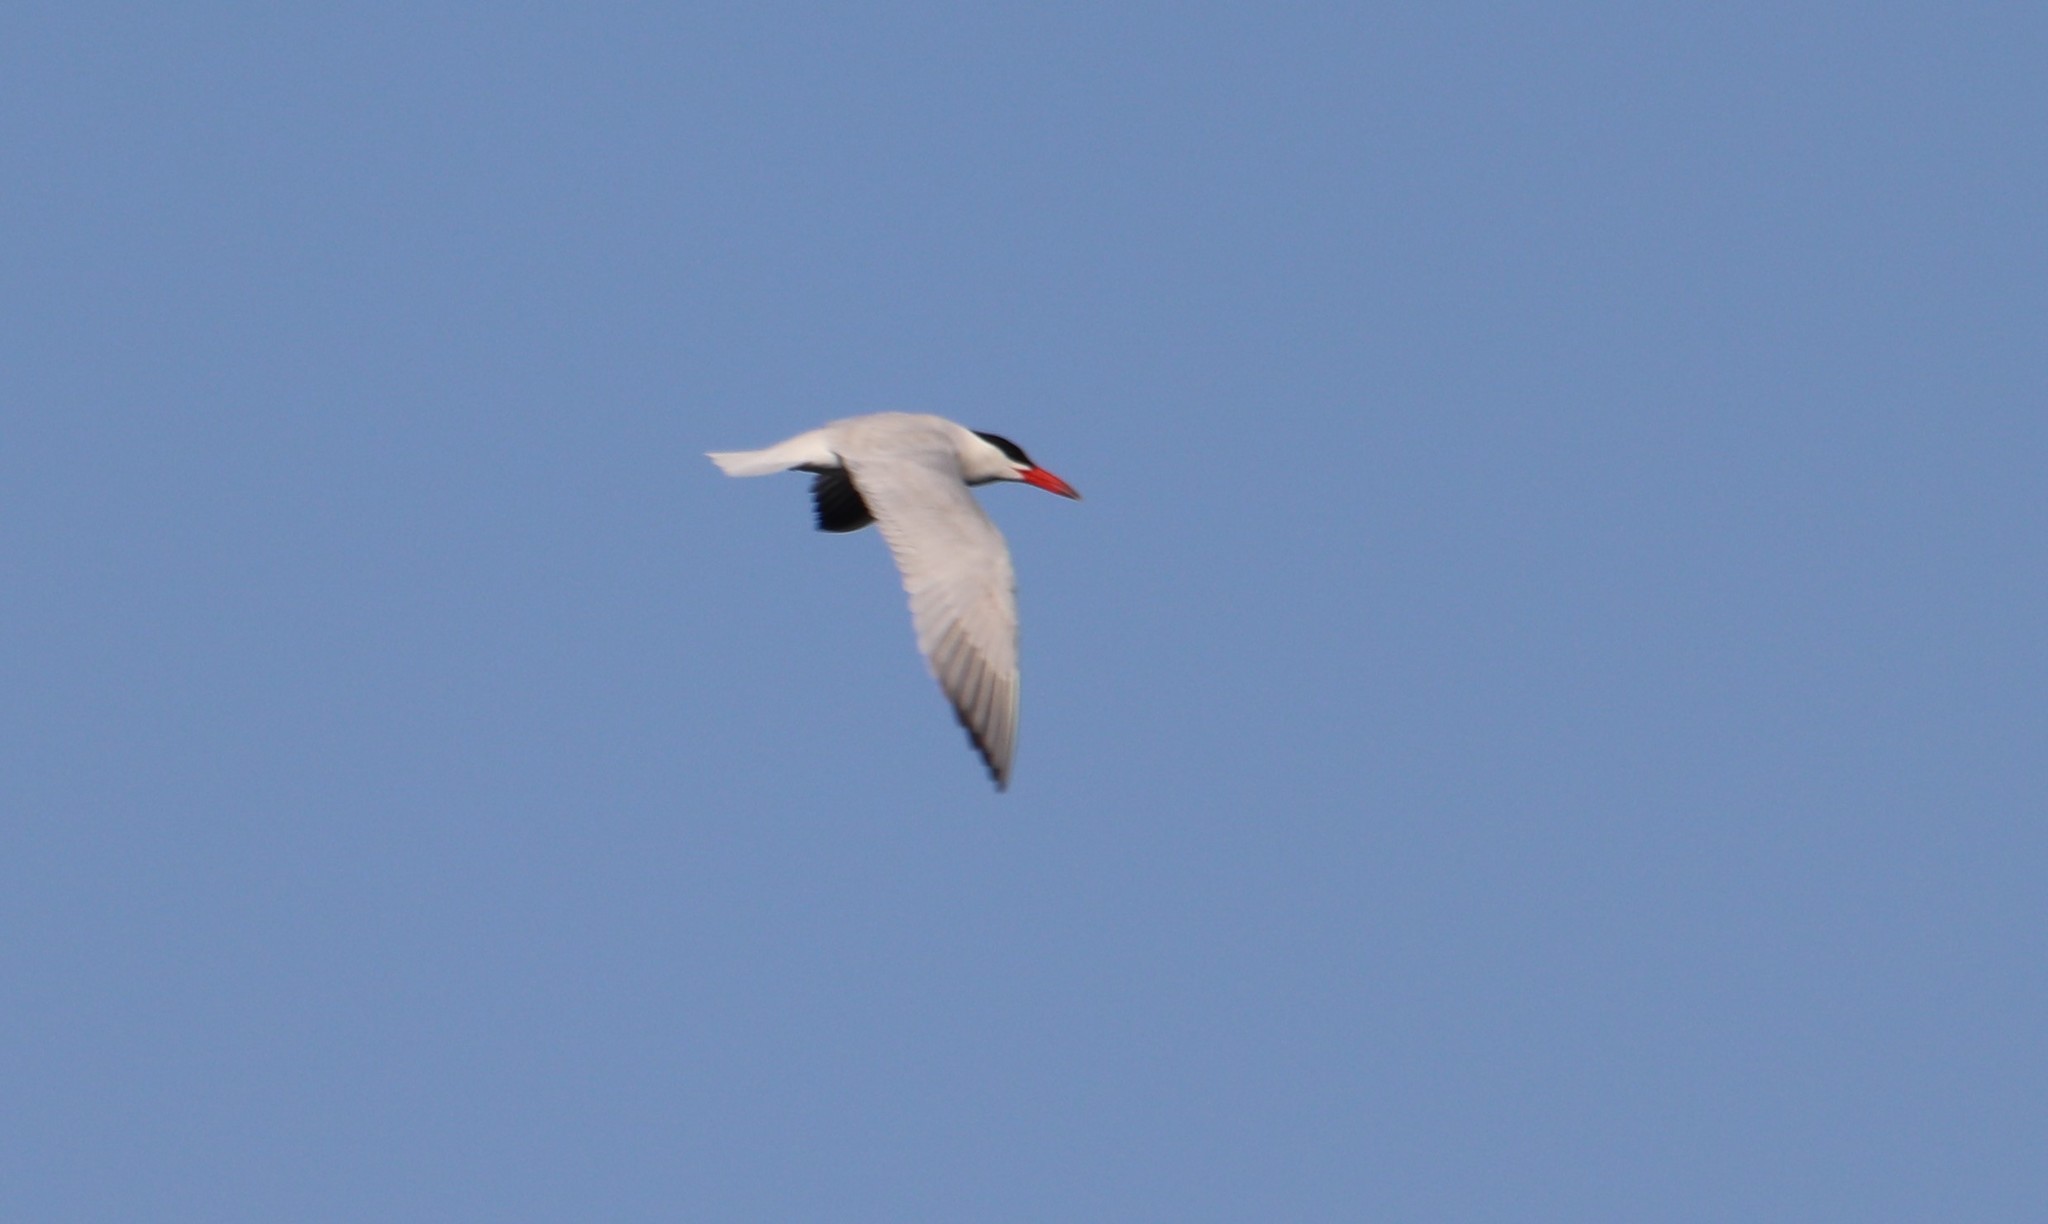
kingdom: Animalia
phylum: Chordata
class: Aves
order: Charadriiformes
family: Laridae
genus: Hydroprogne
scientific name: Hydroprogne caspia
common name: Caspian tern
